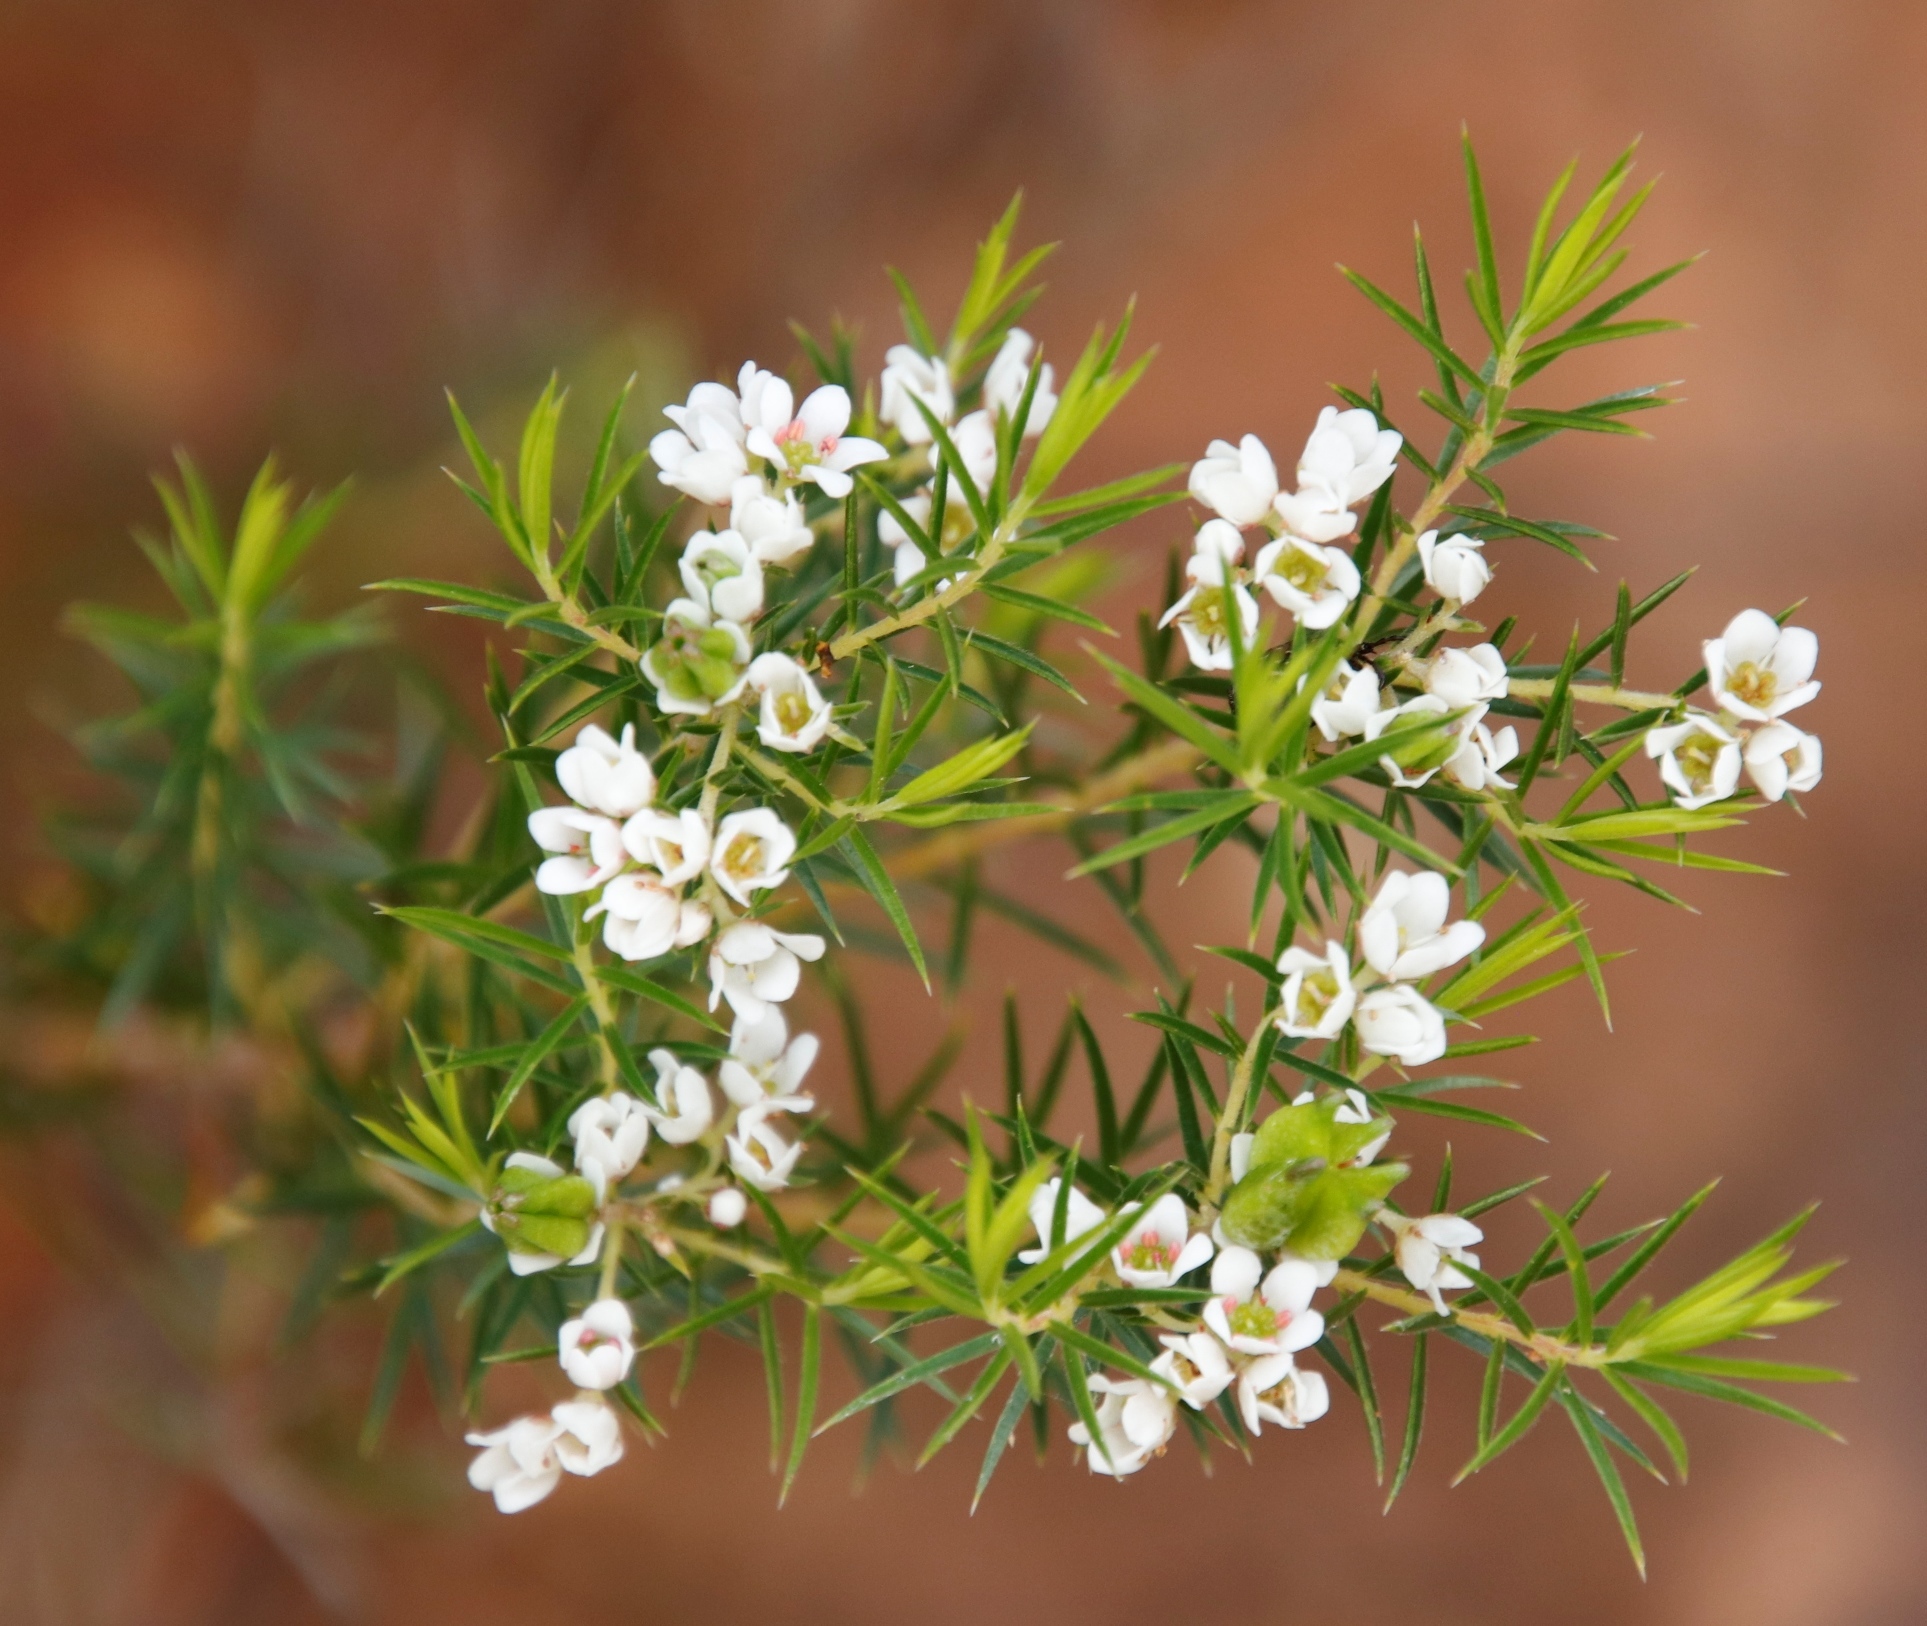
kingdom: Plantae
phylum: Tracheophyta
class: Magnoliopsida
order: Sapindales
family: Rutaceae
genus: Diosma
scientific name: Diosma hirsuta
